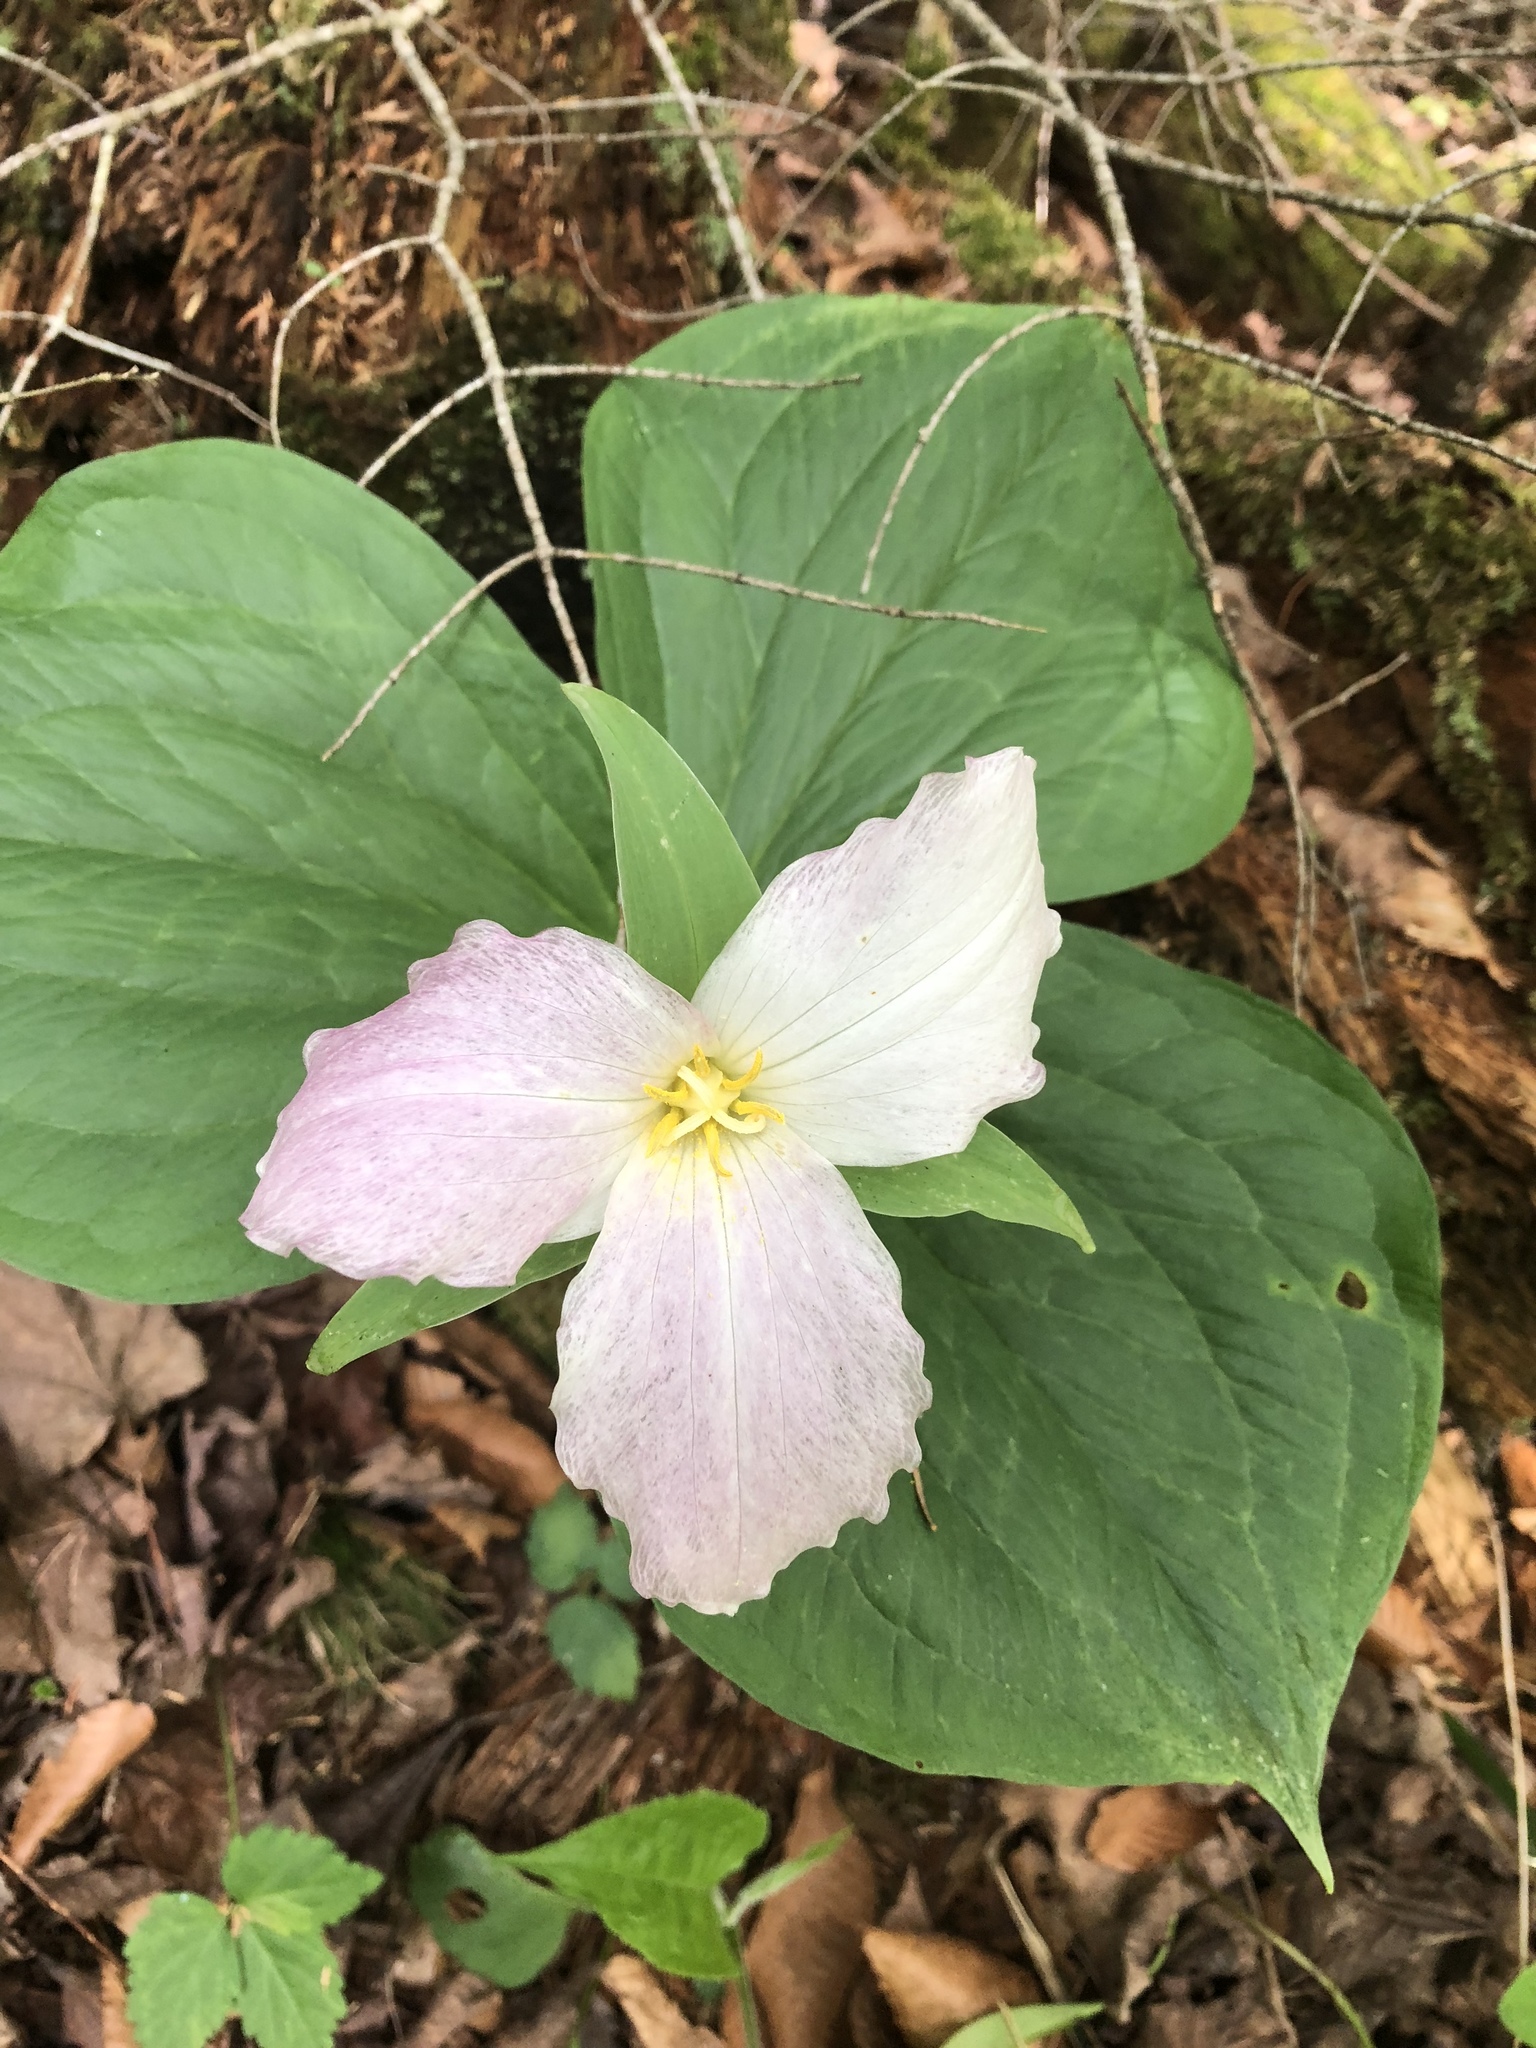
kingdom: Plantae
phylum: Tracheophyta
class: Liliopsida
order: Liliales
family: Melanthiaceae
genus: Trillium
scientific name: Trillium grandiflorum
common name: Great white trillium
